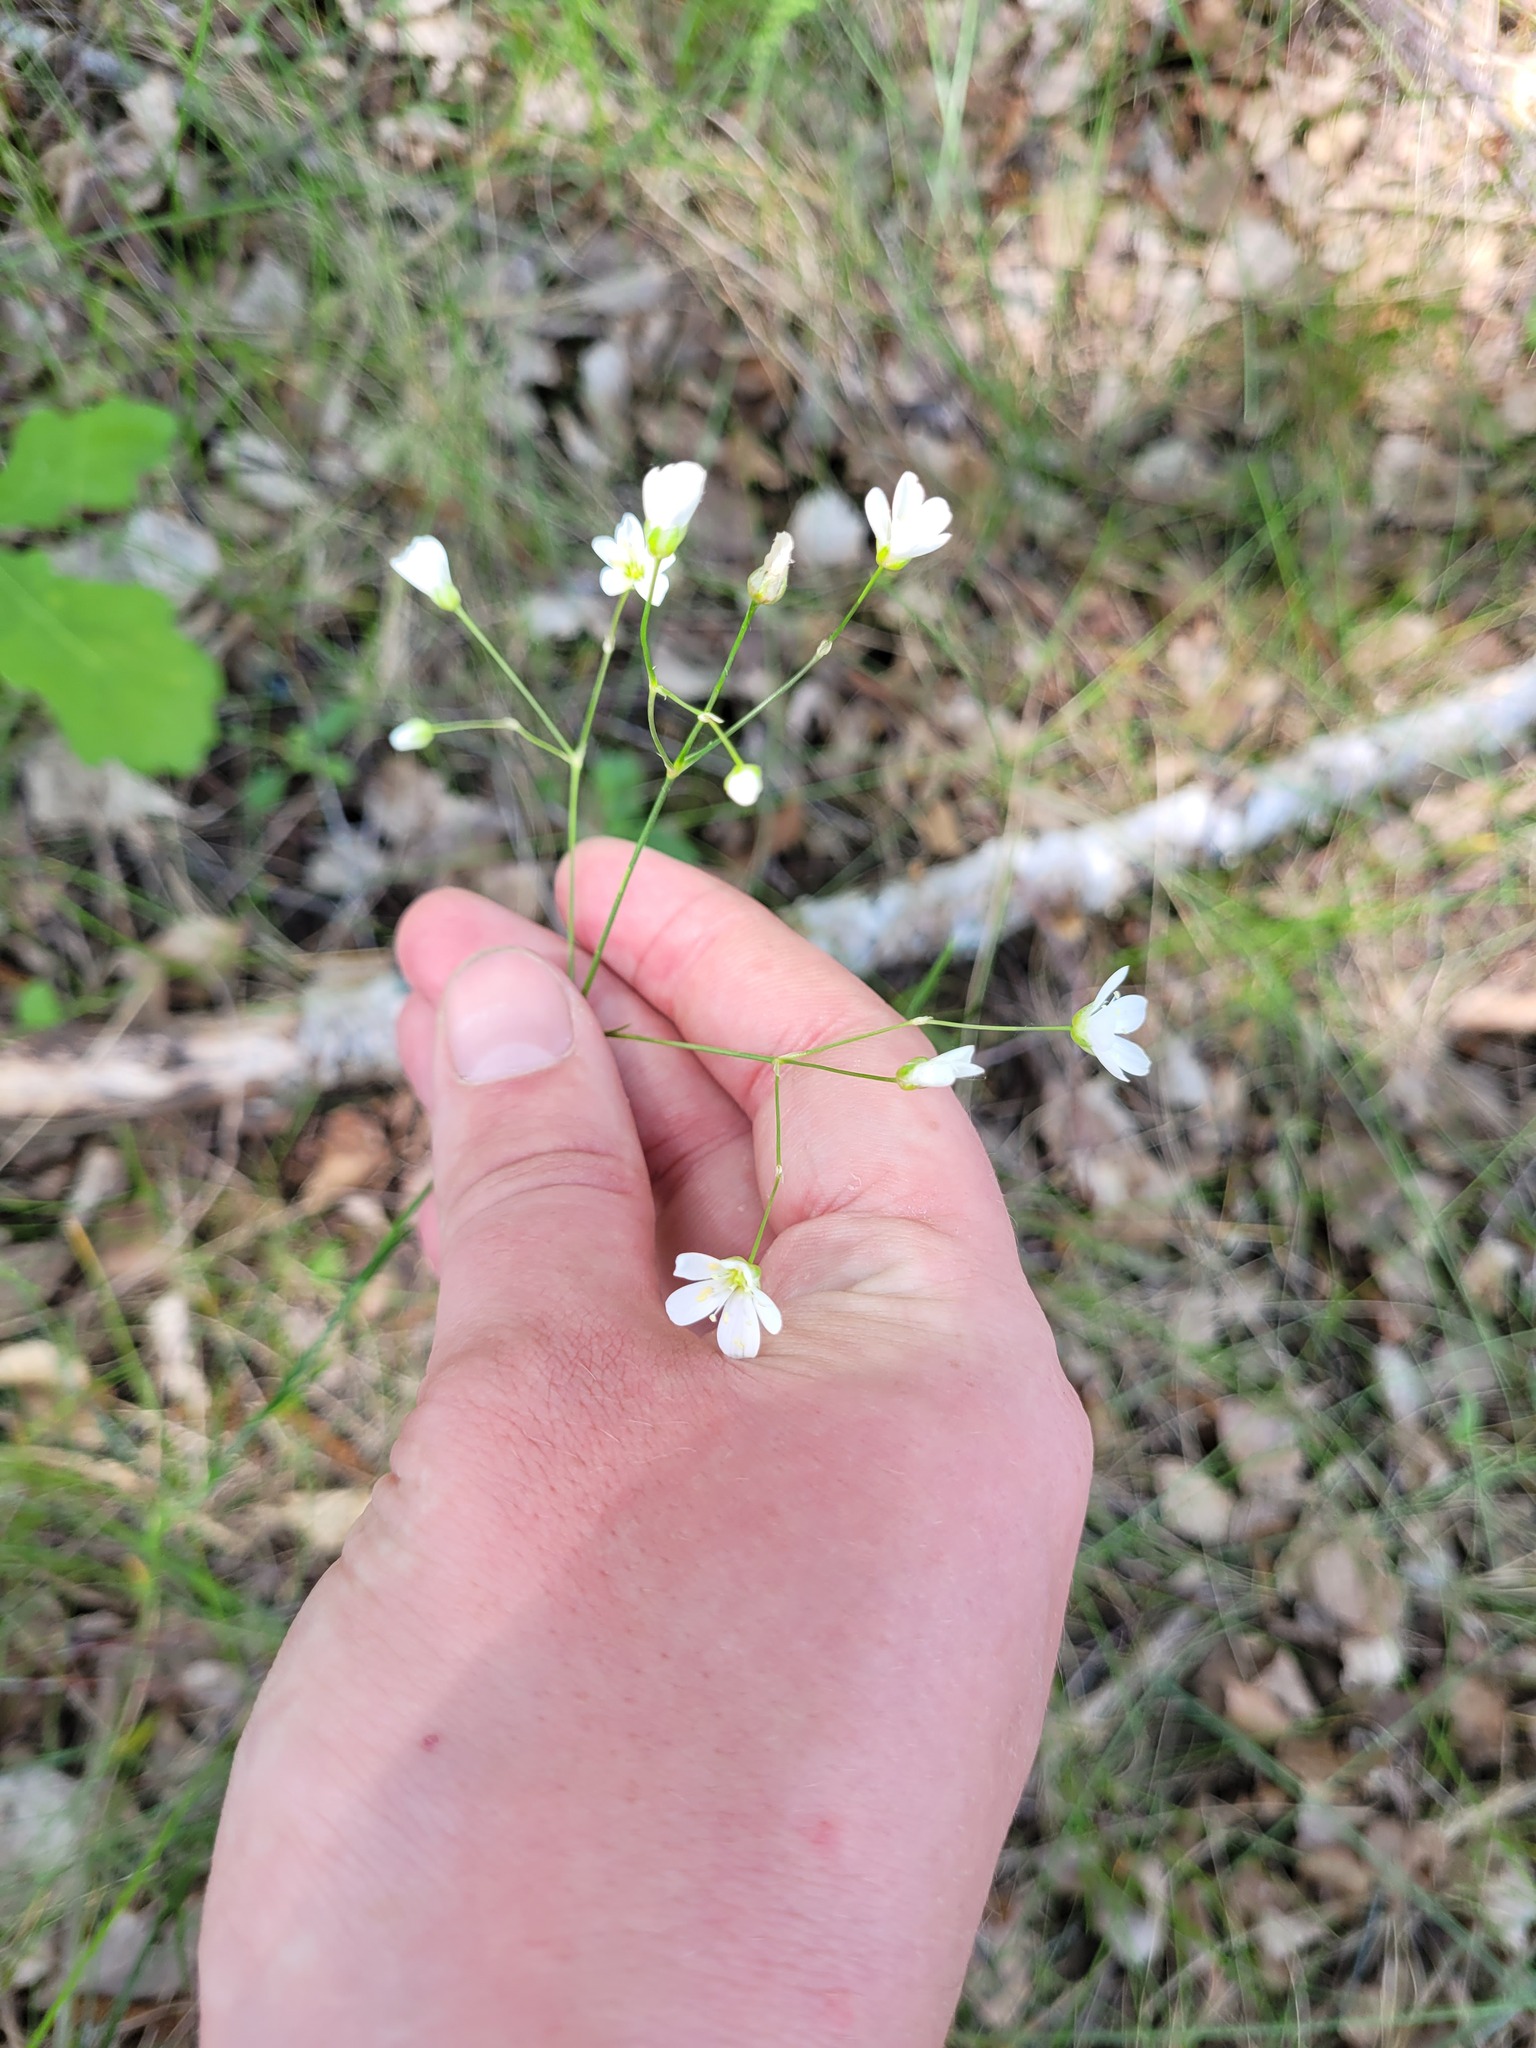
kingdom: Plantae
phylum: Tracheophyta
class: Magnoliopsida
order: Caryophyllales
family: Caryophyllaceae
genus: Eremogone
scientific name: Eremogone saxatilis
